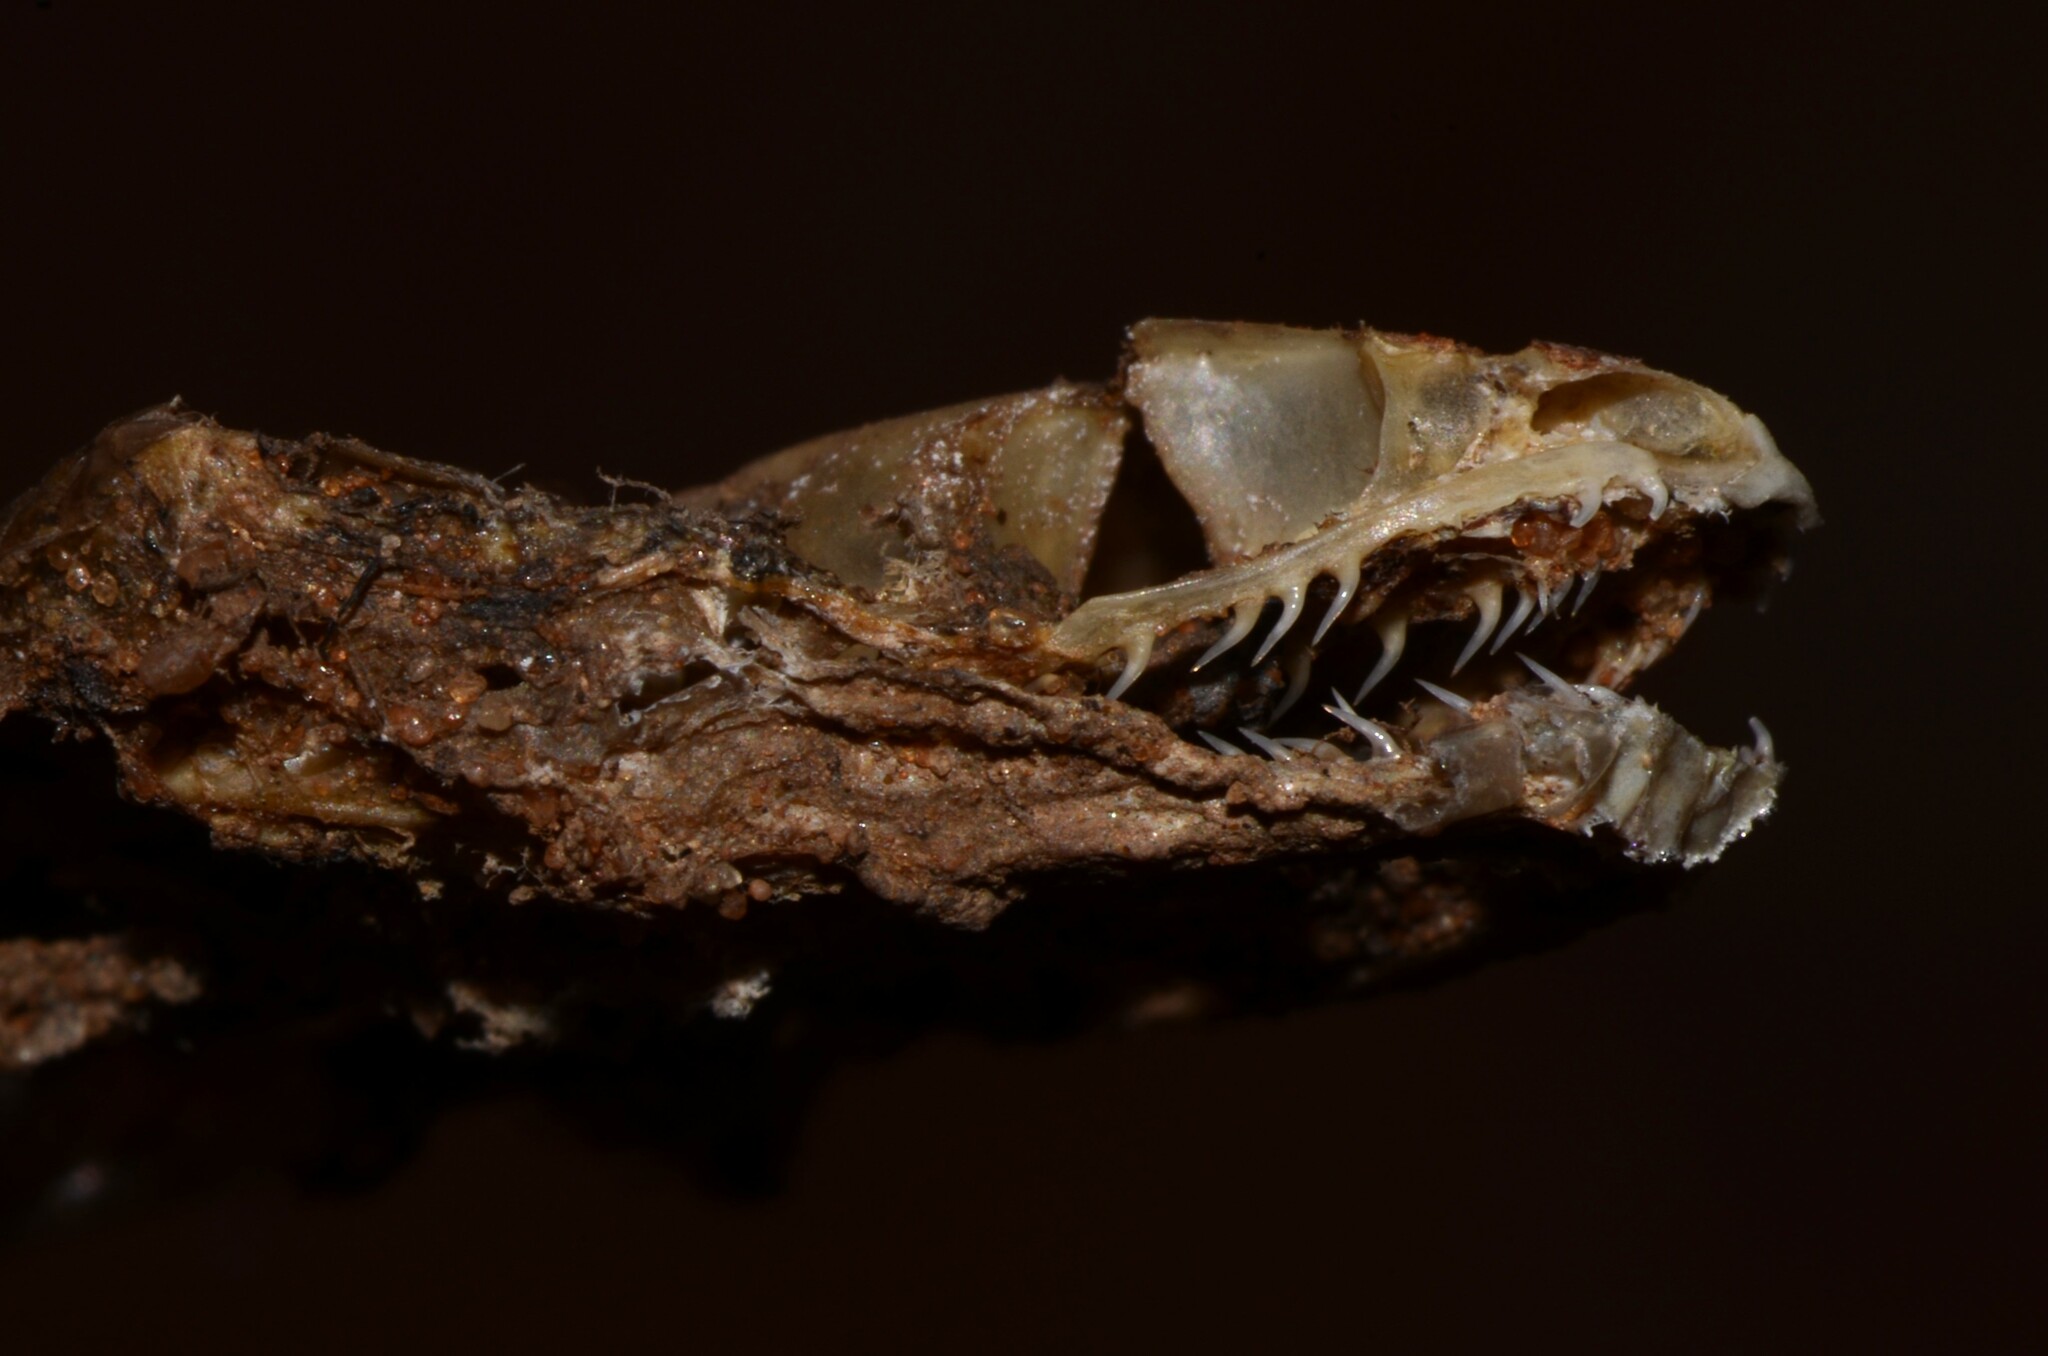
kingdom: Animalia
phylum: Chordata
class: Squamata
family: Psammophiidae
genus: Malpolon
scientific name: Malpolon moilensis
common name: Moila snake
